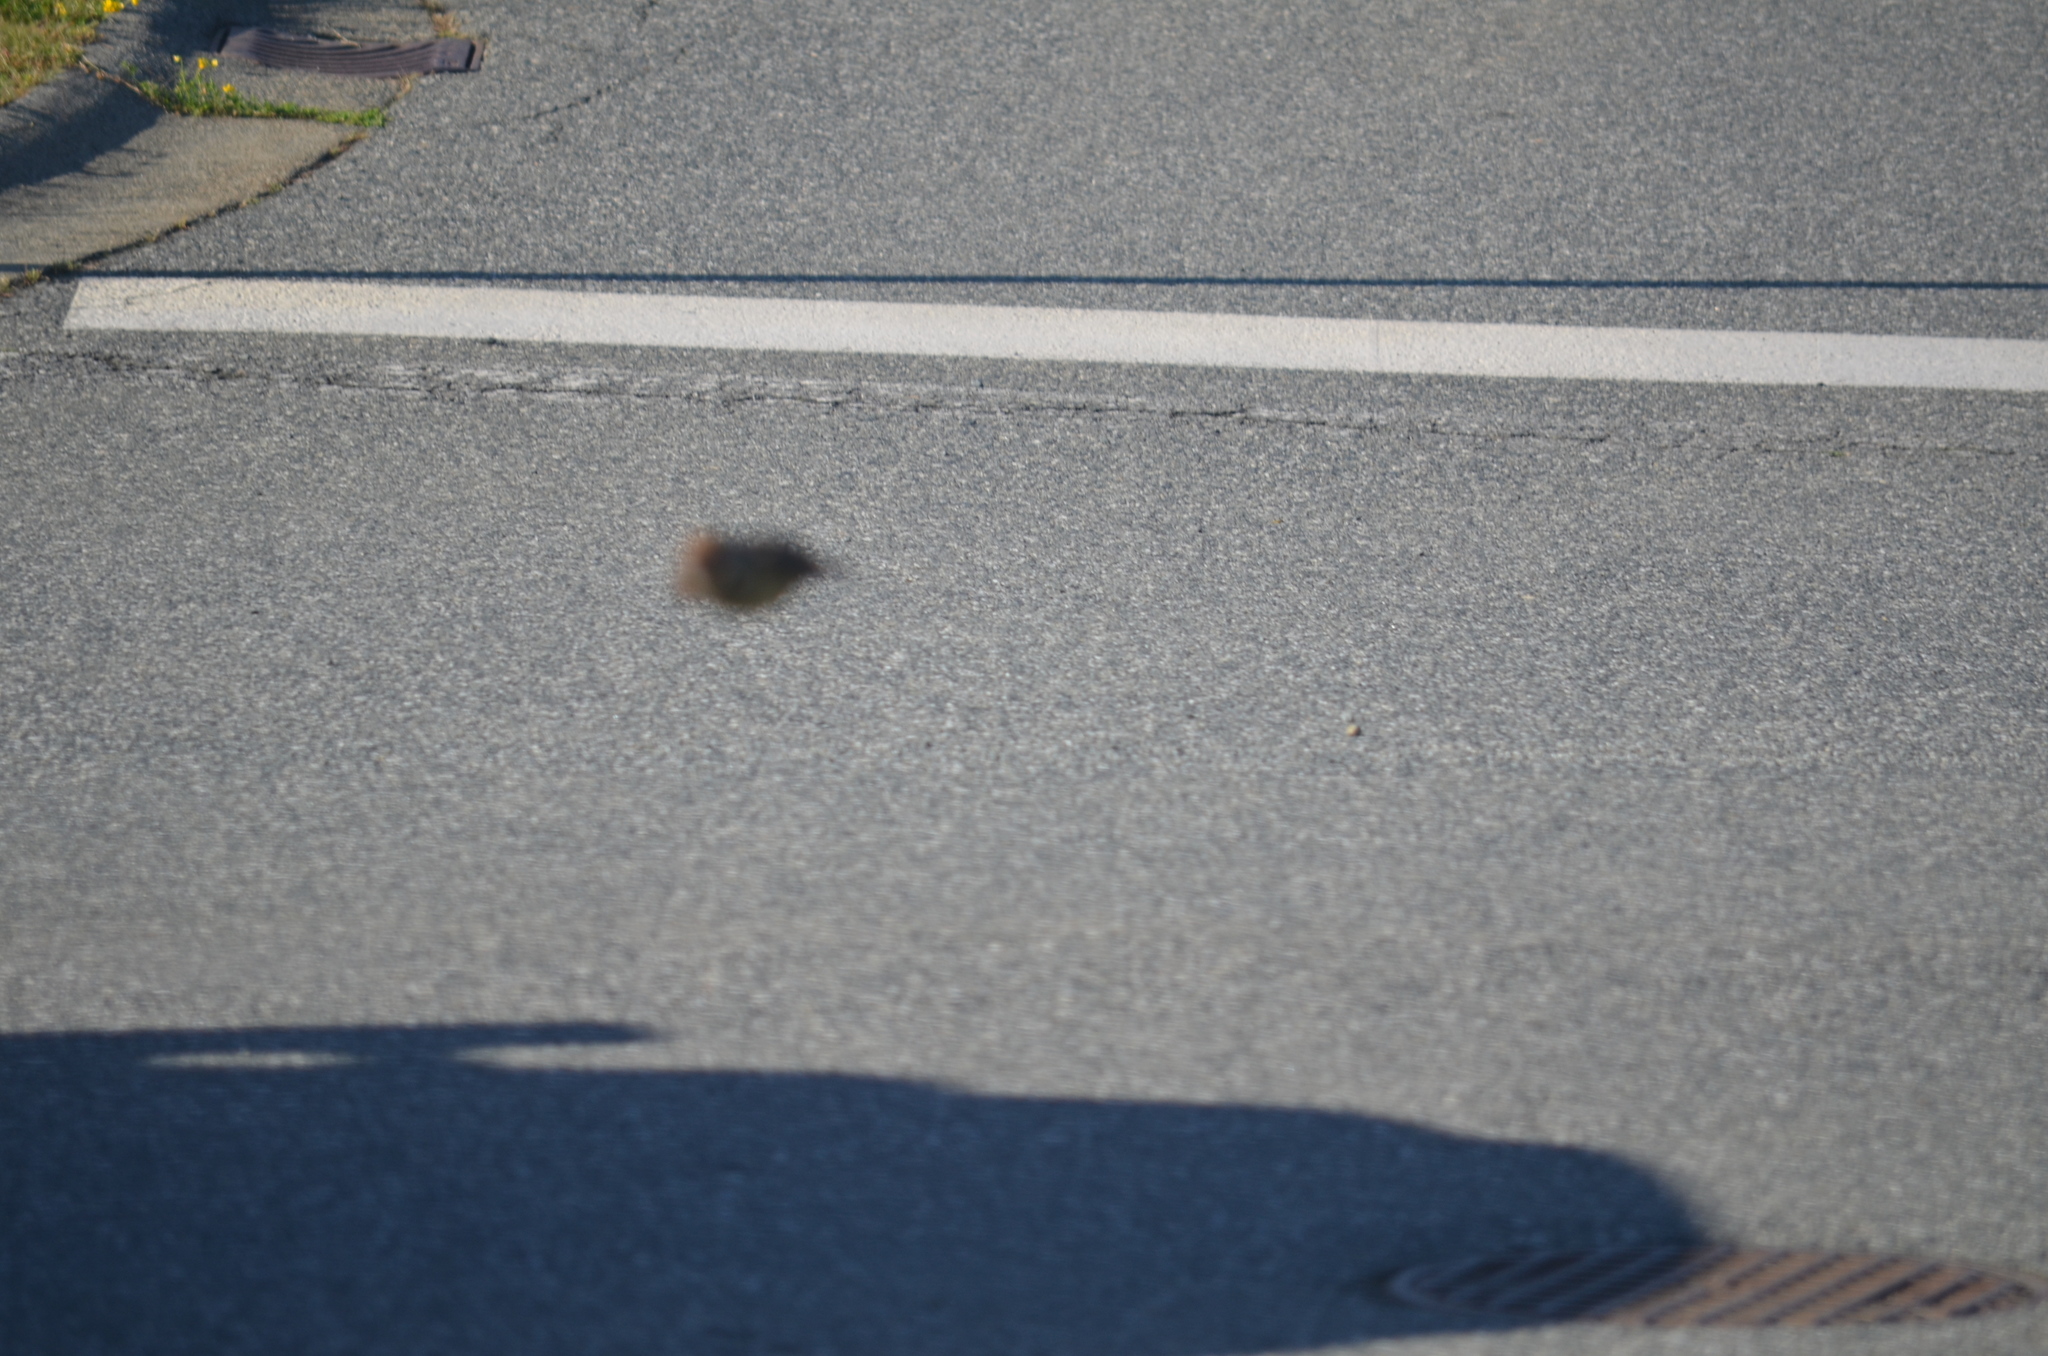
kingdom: Animalia
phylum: Chordata
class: Aves
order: Piciformes
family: Picidae
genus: Colaptes
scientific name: Colaptes auratus
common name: Northern flicker
